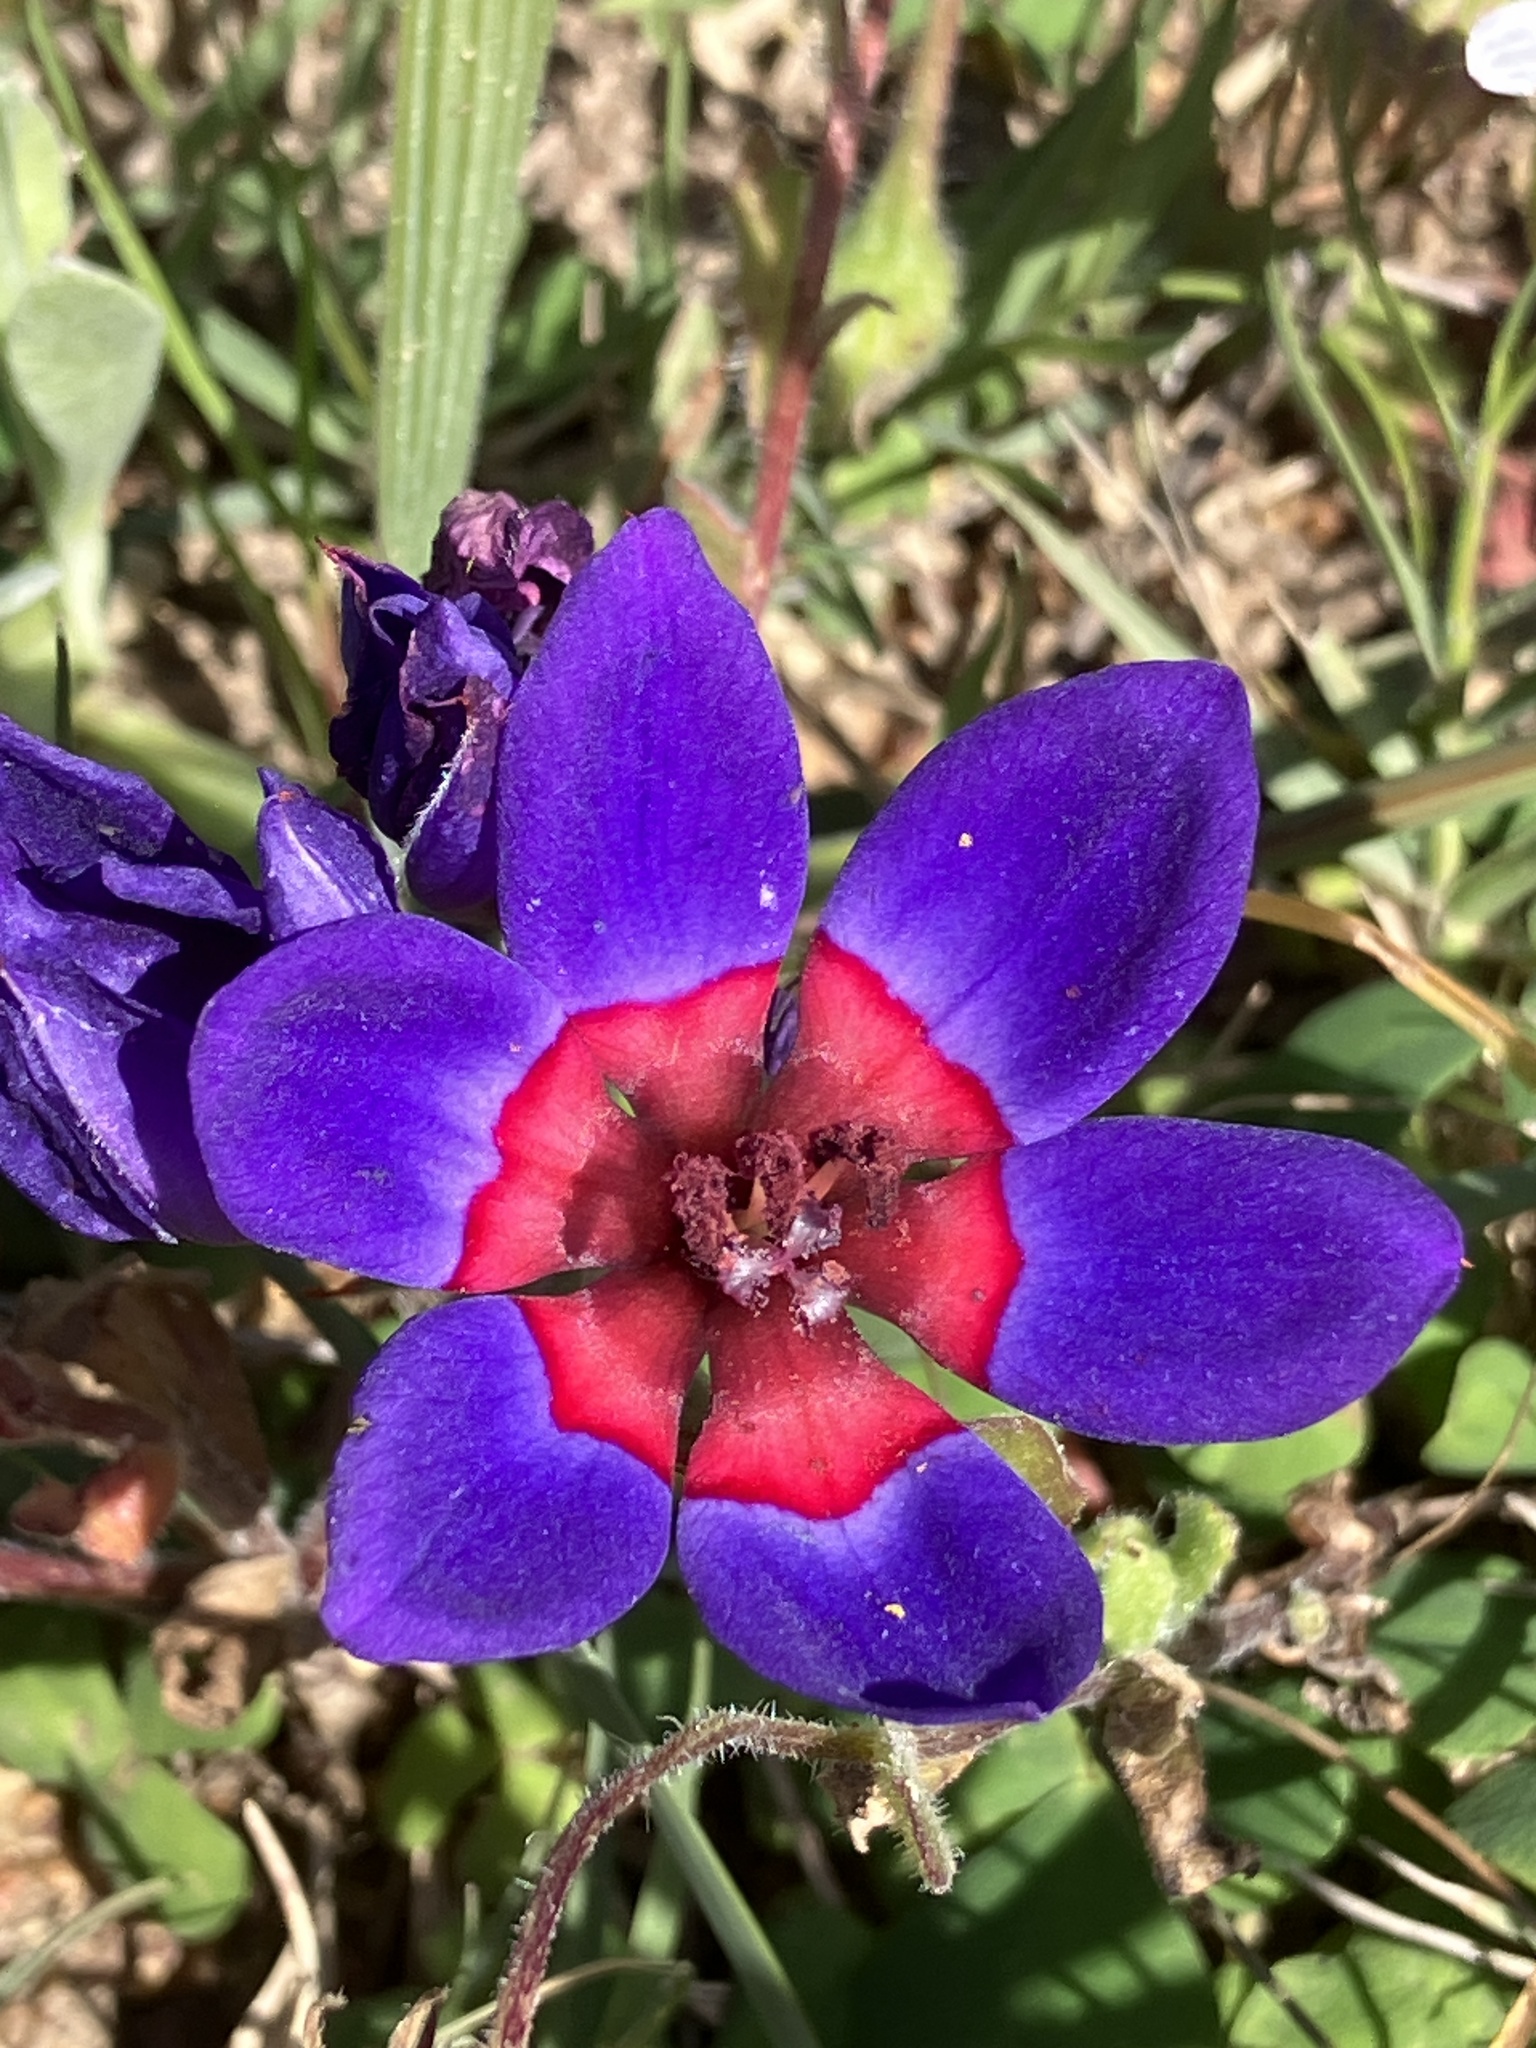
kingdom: Plantae
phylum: Tracheophyta
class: Liliopsida
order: Asparagales
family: Iridaceae
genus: Babiana
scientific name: Babiana rubrocyanea
